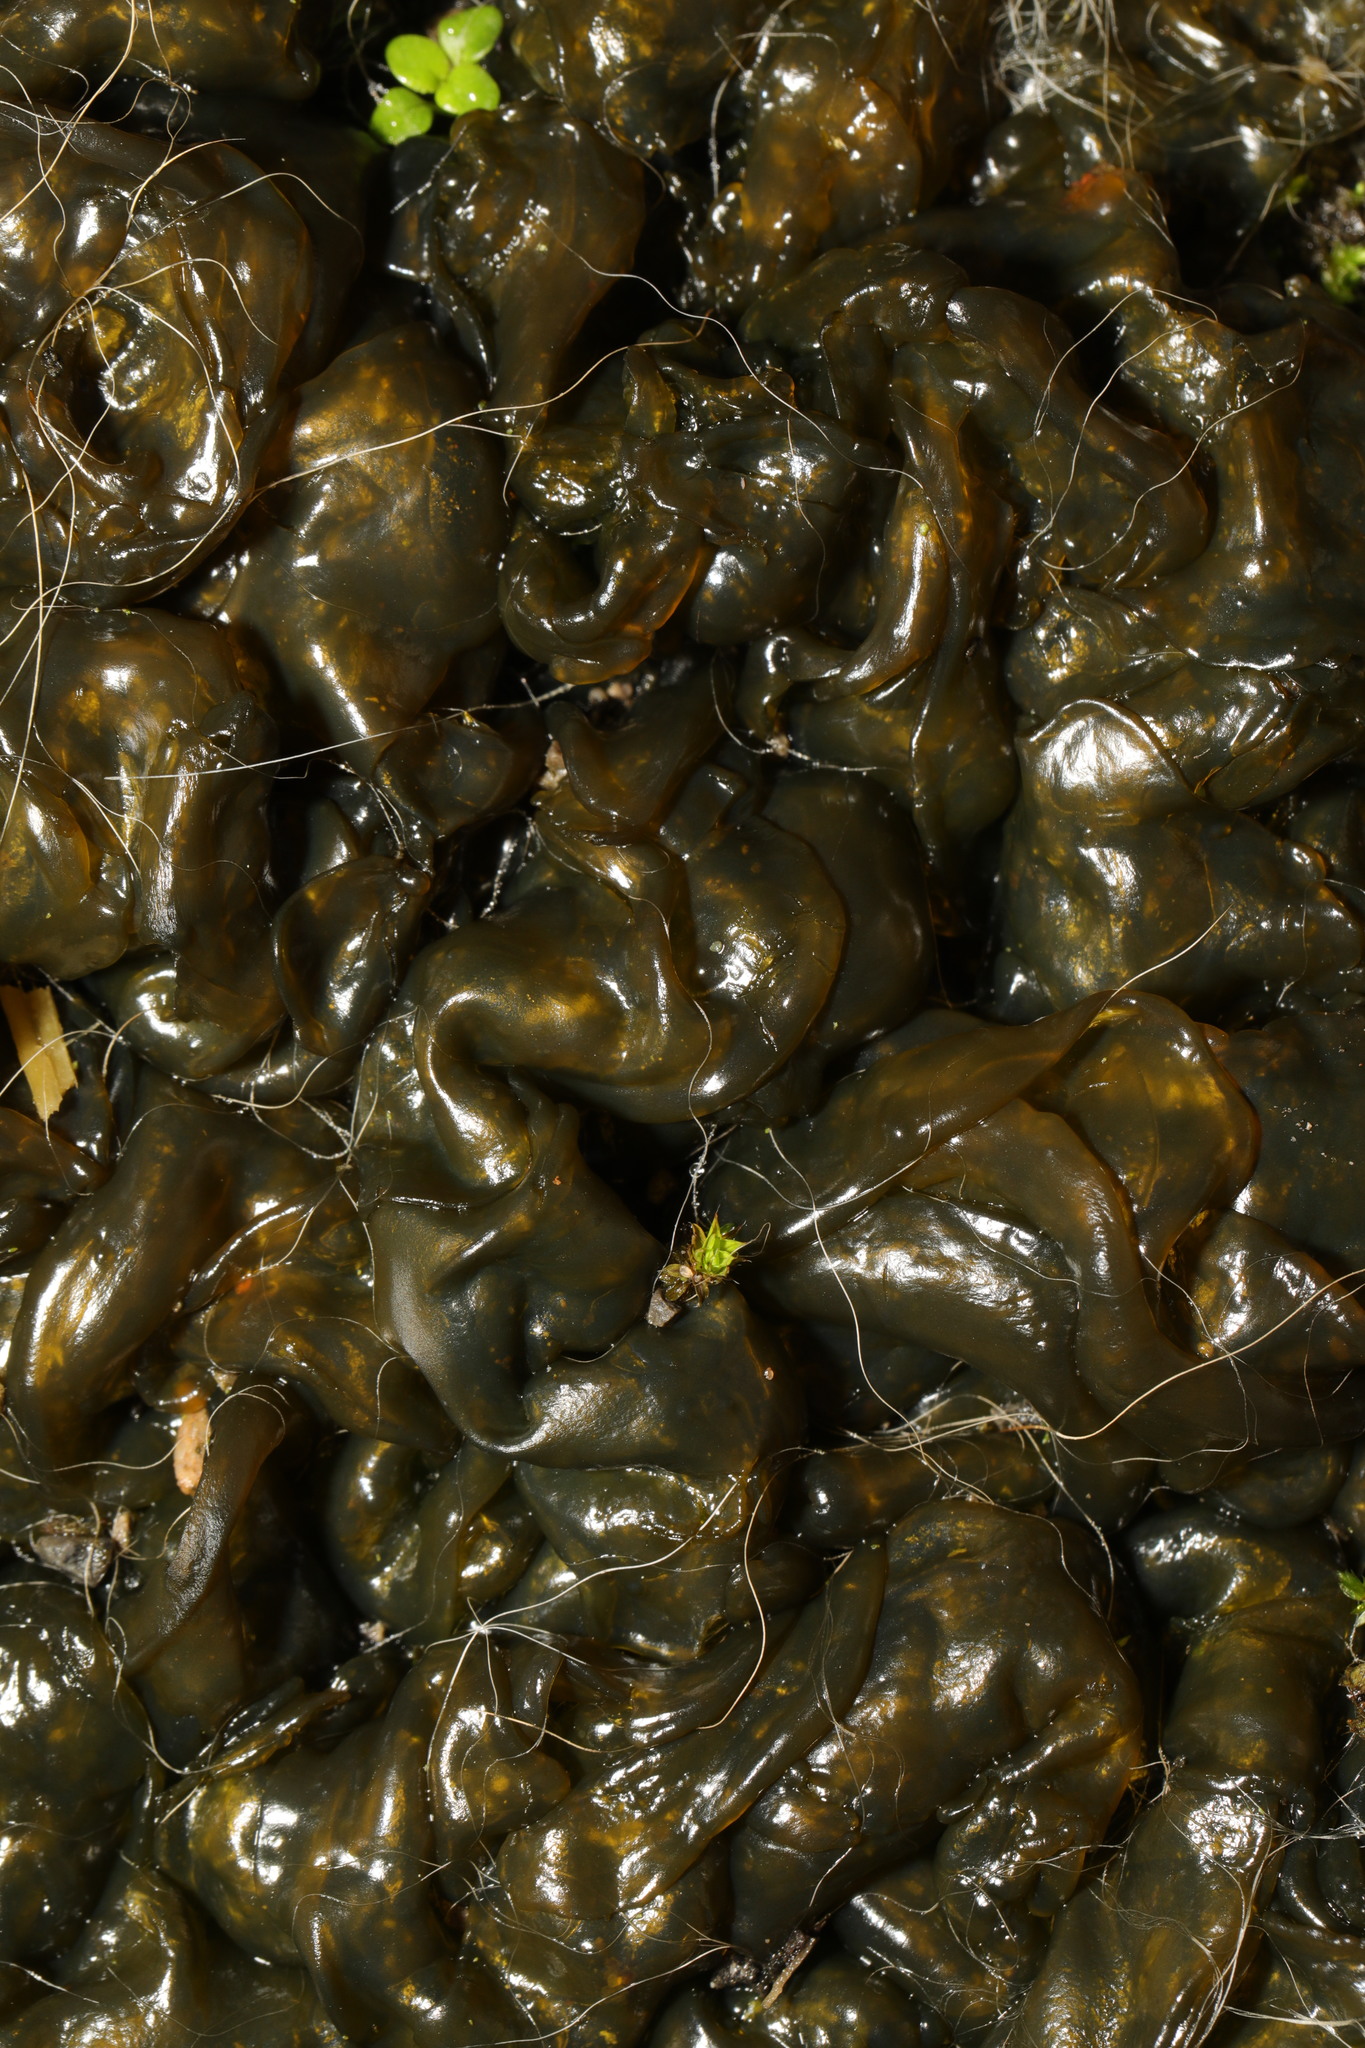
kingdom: Bacteria
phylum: Cyanobacteria
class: Cyanobacteriia
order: Cyanobacteriales
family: Nostocaceae
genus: Nostoc
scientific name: Nostoc commune
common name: Star jelly
